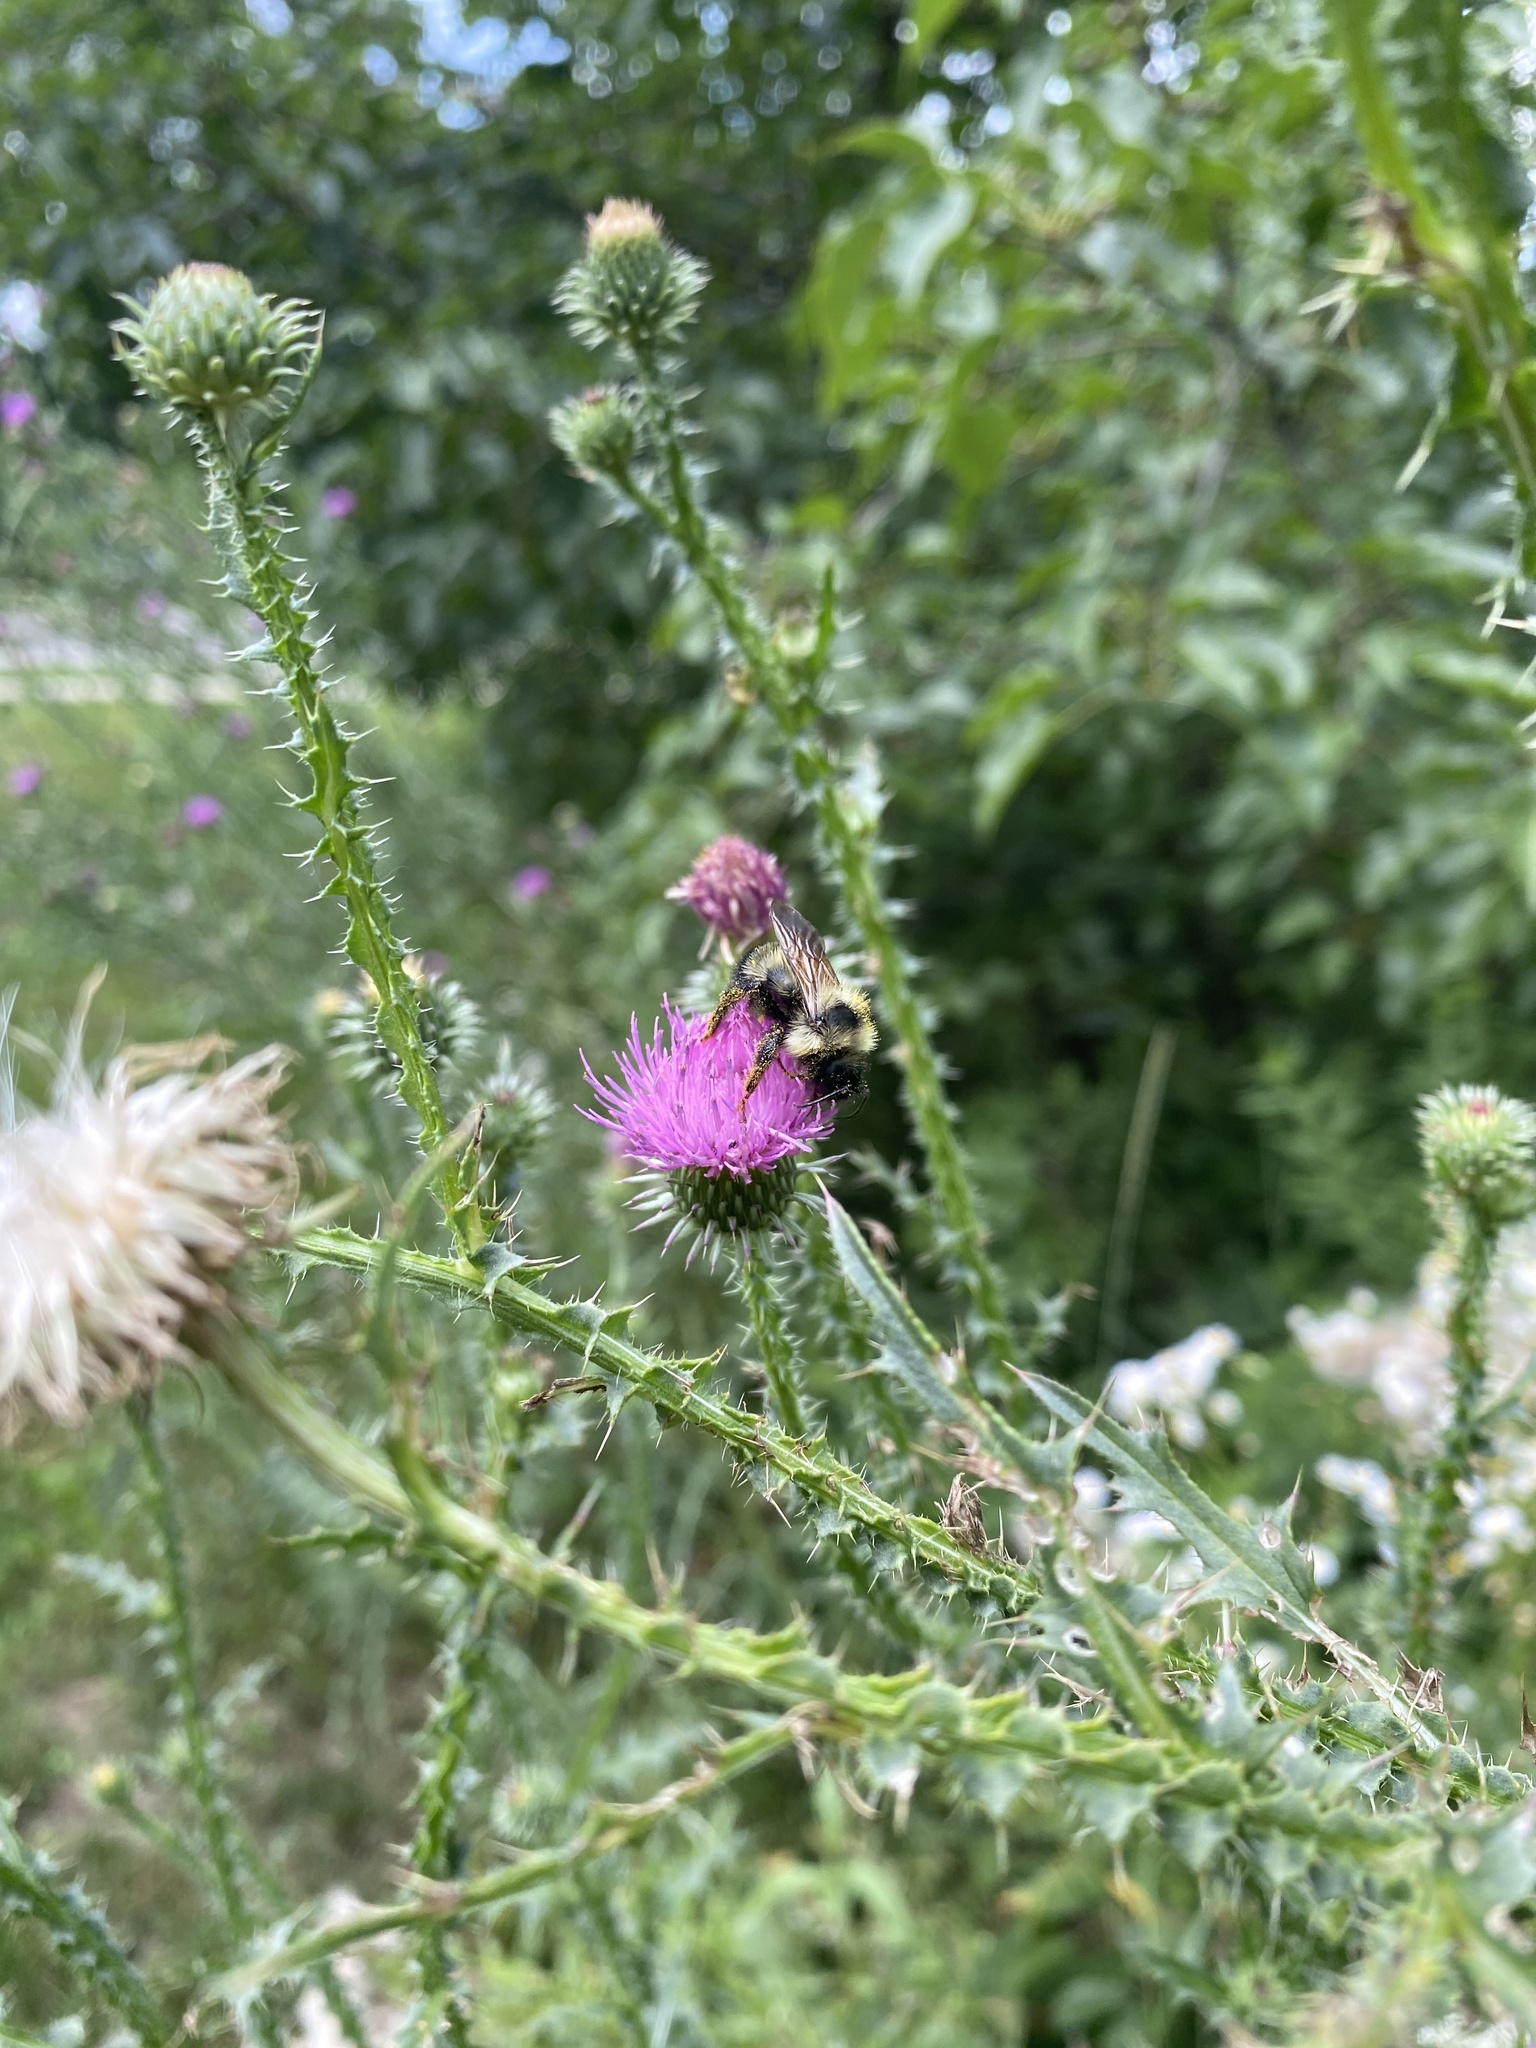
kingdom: Animalia
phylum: Arthropoda
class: Insecta
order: Hymenoptera
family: Apidae
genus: Bombus
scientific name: Bombus citrinus
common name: Lemon cuckoo bumble bee
